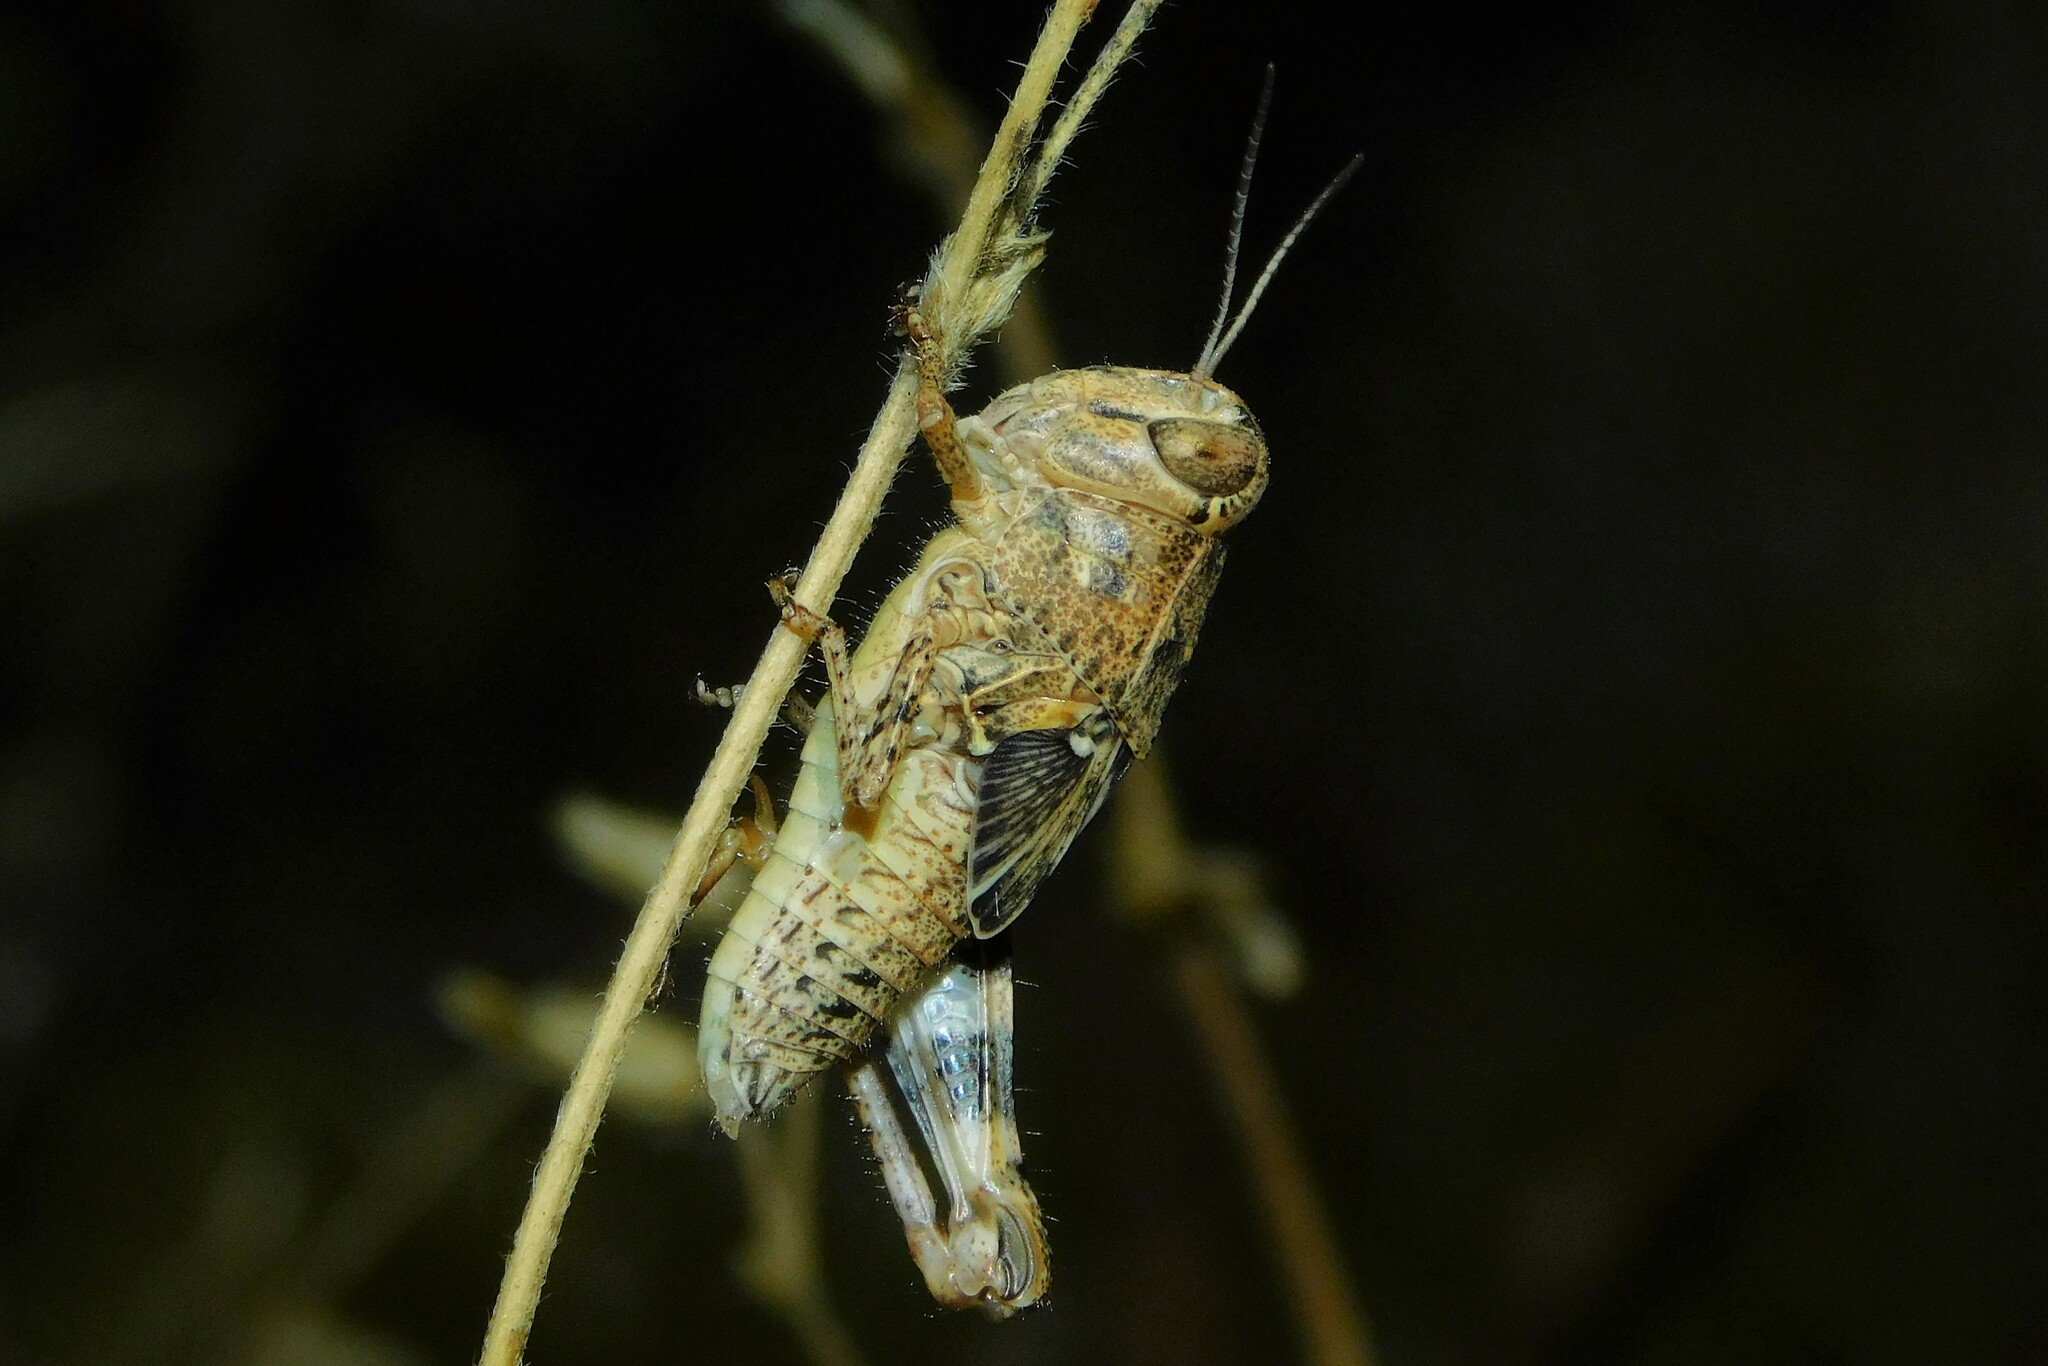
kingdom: Animalia
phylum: Arthropoda
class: Insecta
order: Orthoptera
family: Acrididae
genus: Calliptamus
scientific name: Calliptamus italicus
